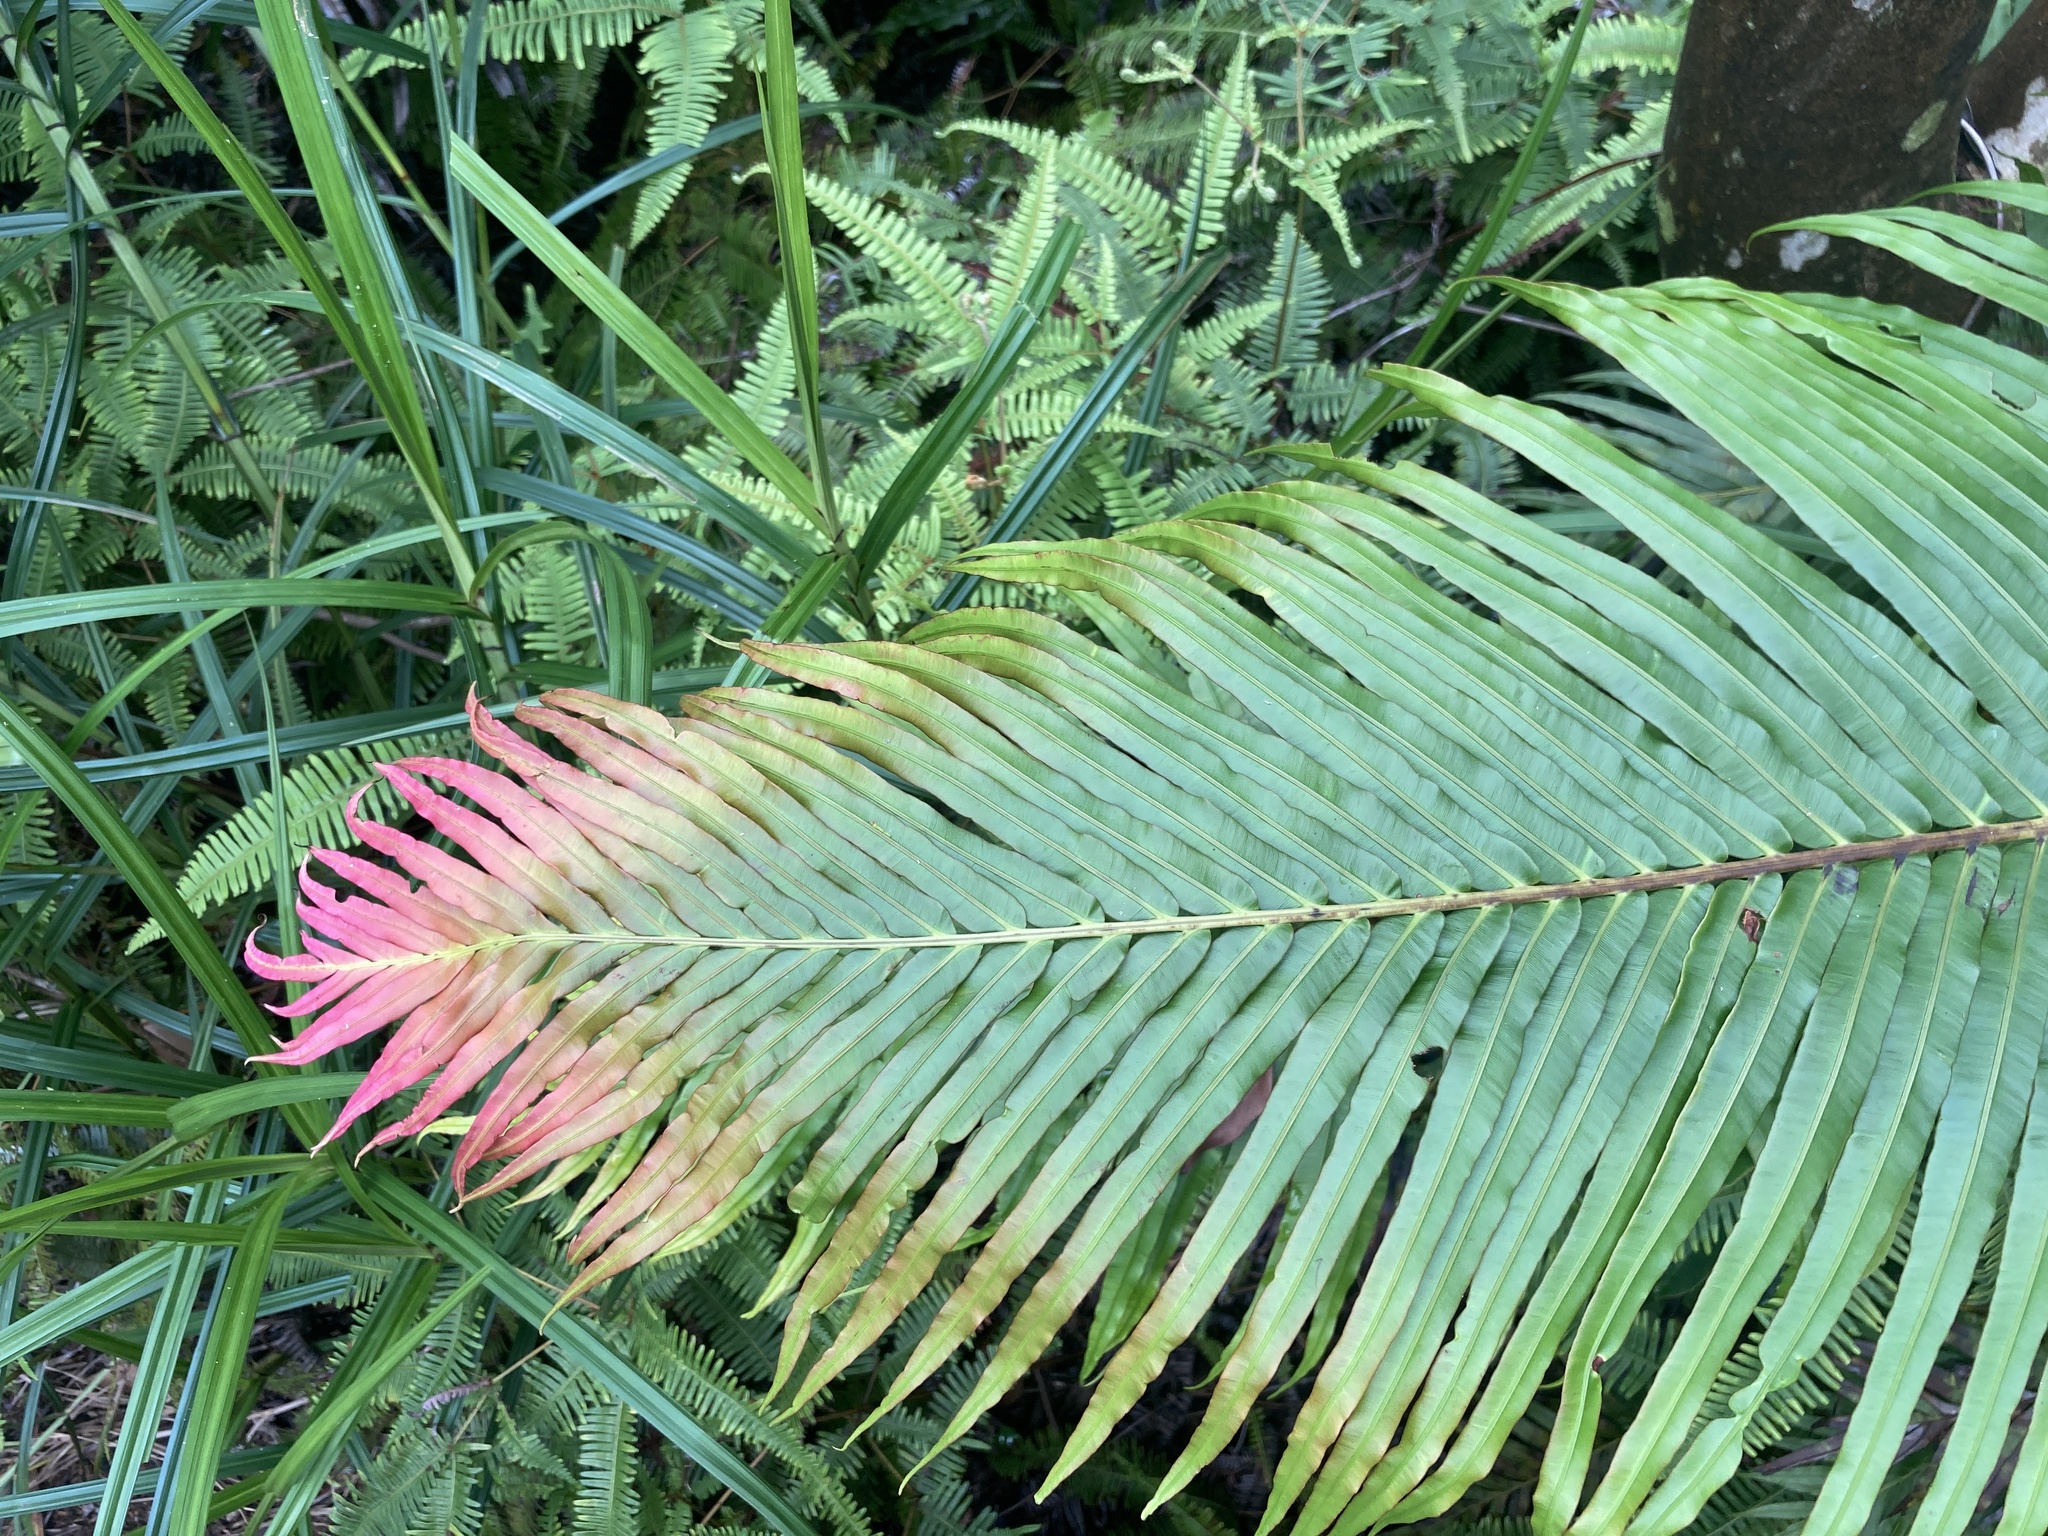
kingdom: Plantae
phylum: Tracheophyta
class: Polypodiopsida
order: Polypodiales
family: Blechnaceae
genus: Blechnopsis
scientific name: Blechnopsis orientalis
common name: Oriental blechnum
